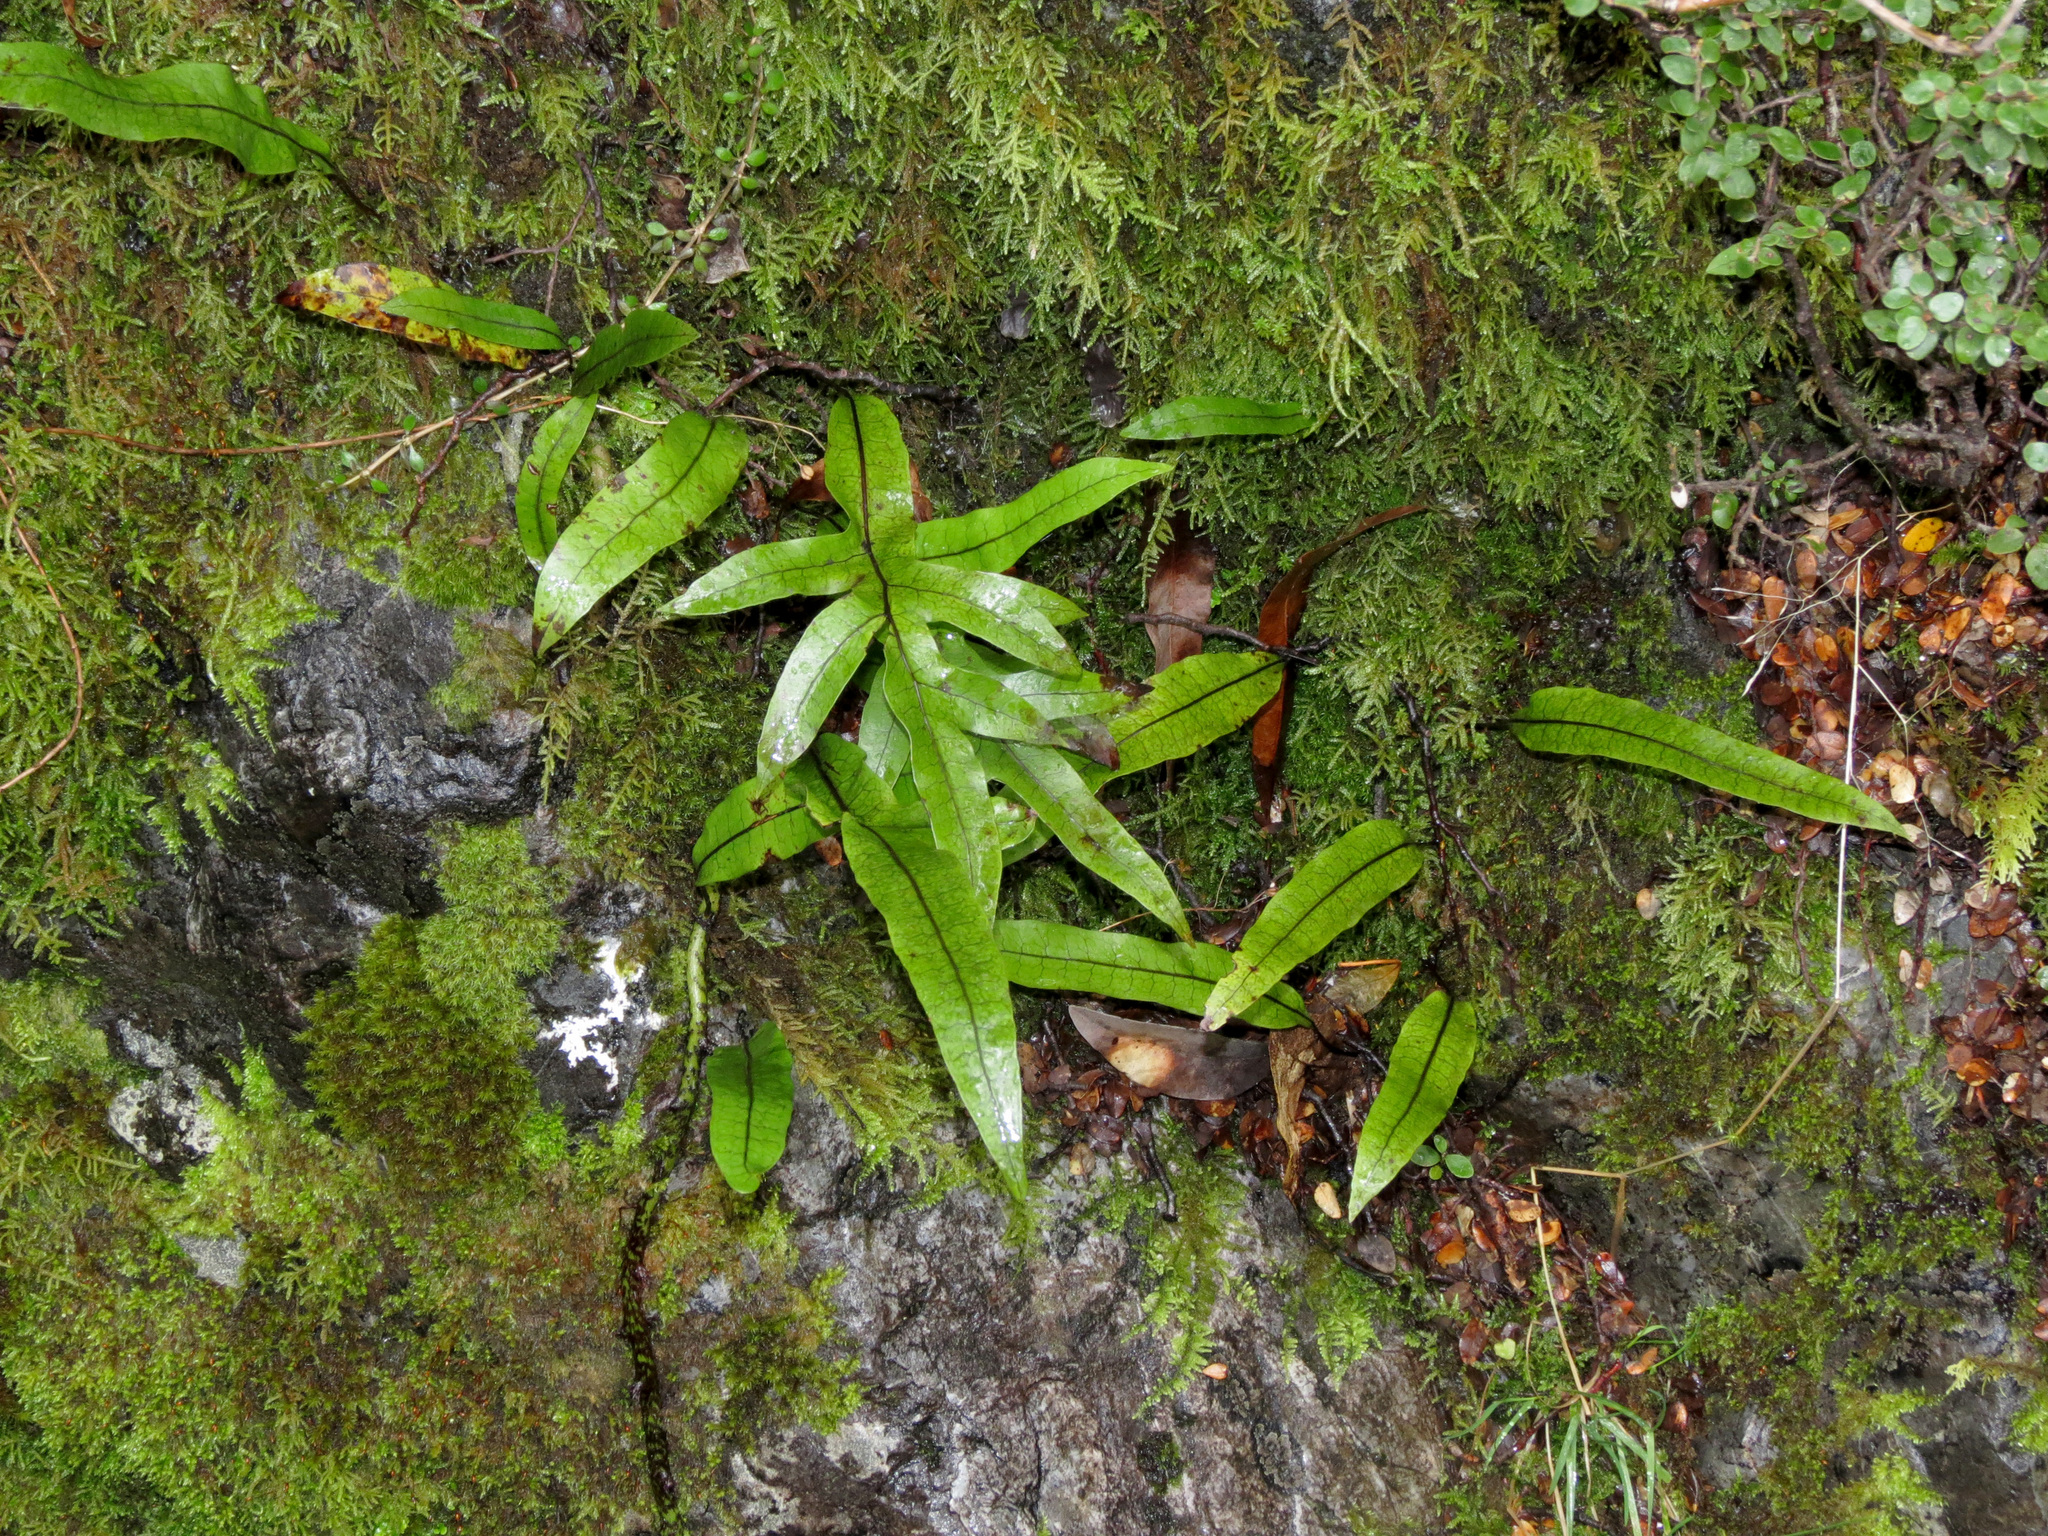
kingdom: Plantae
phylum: Tracheophyta
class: Polypodiopsida
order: Polypodiales
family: Polypodiaceae
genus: Lecanopteris
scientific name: Lecanopteris pustulata
